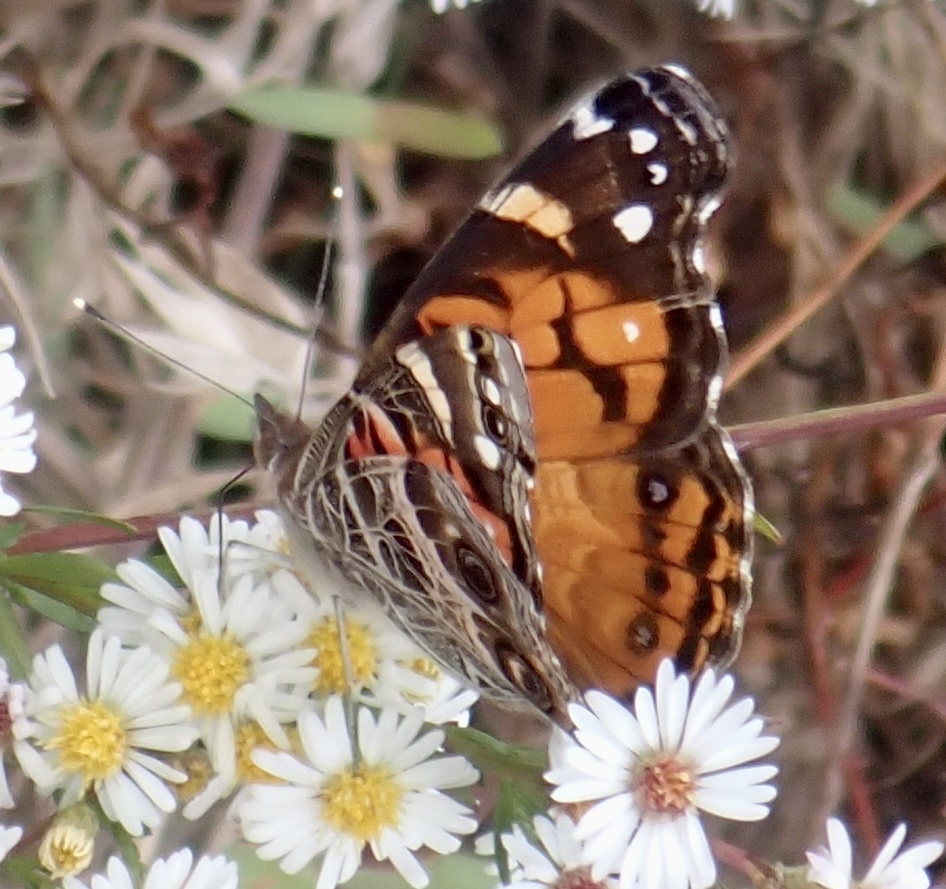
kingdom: Animalia
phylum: Arthropoda
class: Insecta
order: Lepidoptera
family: Nymphalidae
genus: Vanessa
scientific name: Vanessa virginiensis
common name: American lady
